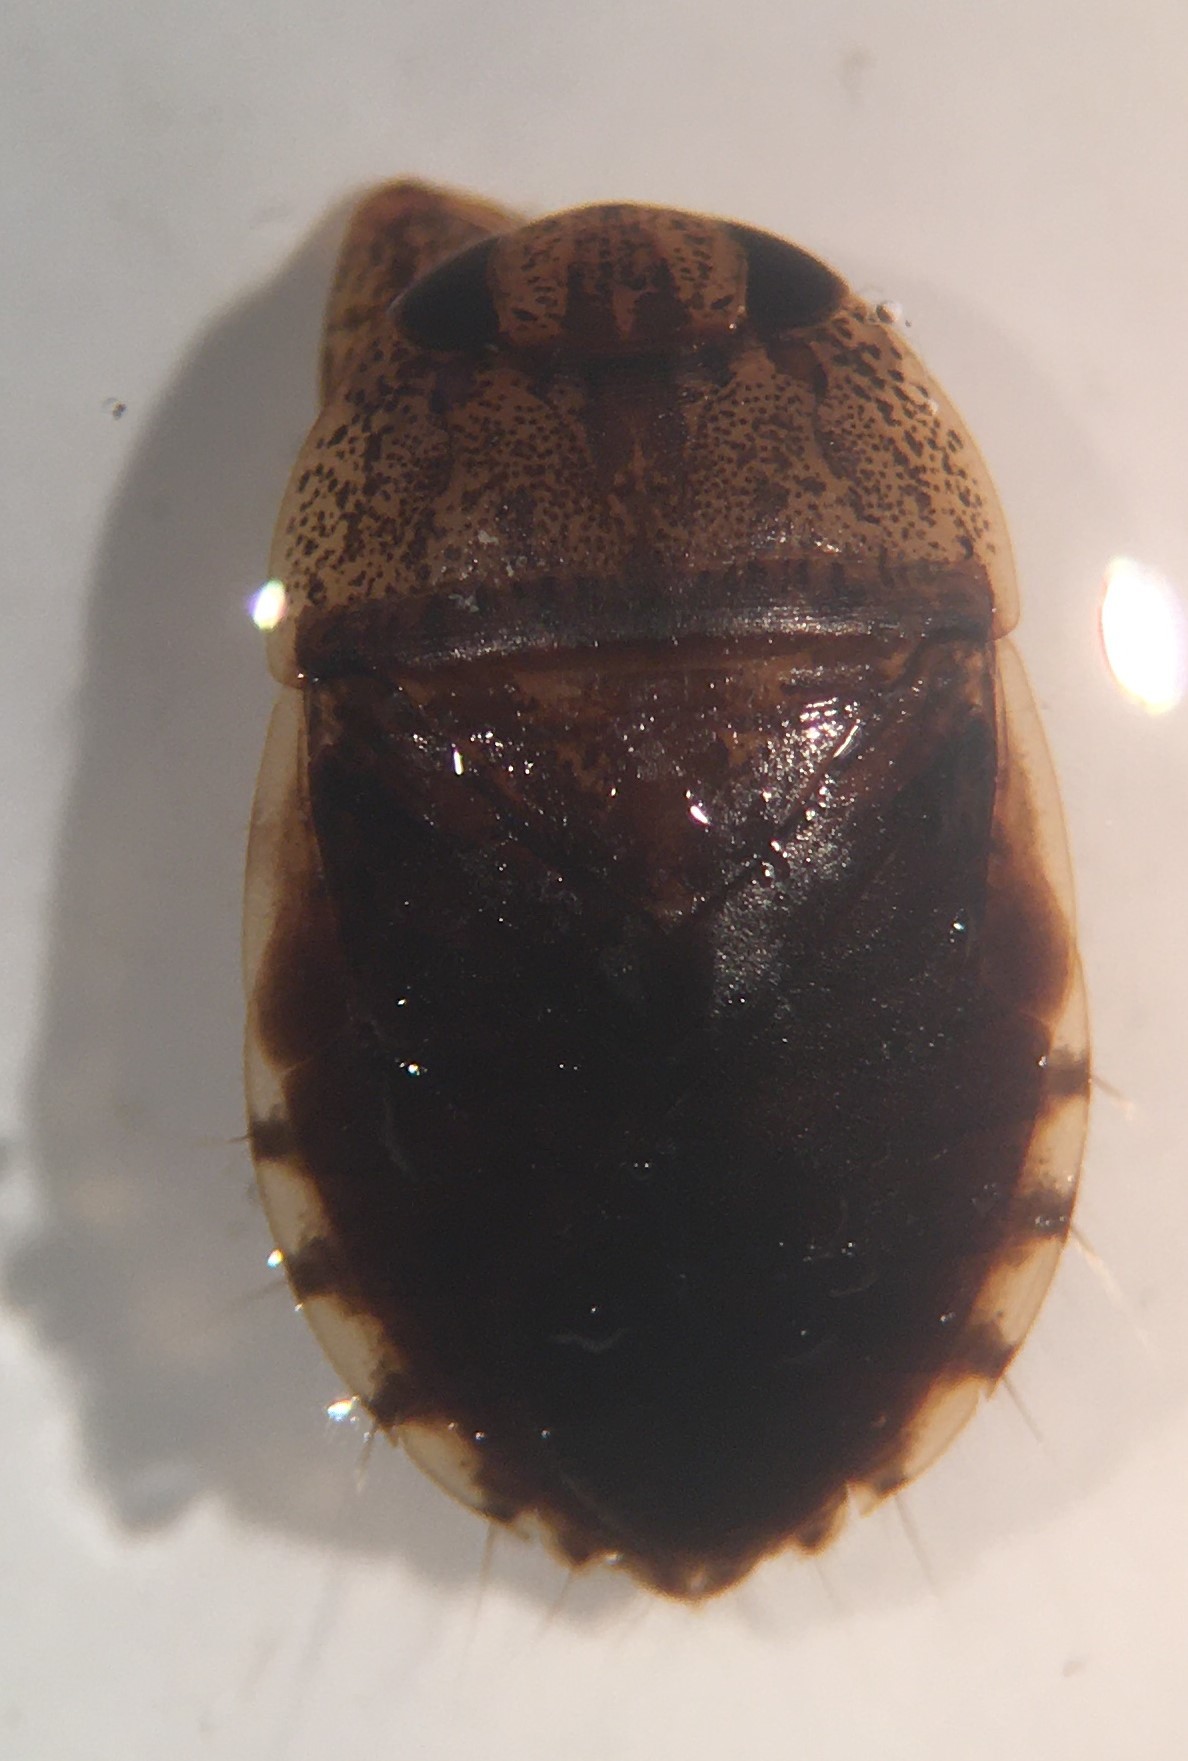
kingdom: Animalia
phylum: Arthropoda
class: Insecta
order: Hemiptera
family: Naucoridae
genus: Pelocoris
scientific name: Pelocoris balius
